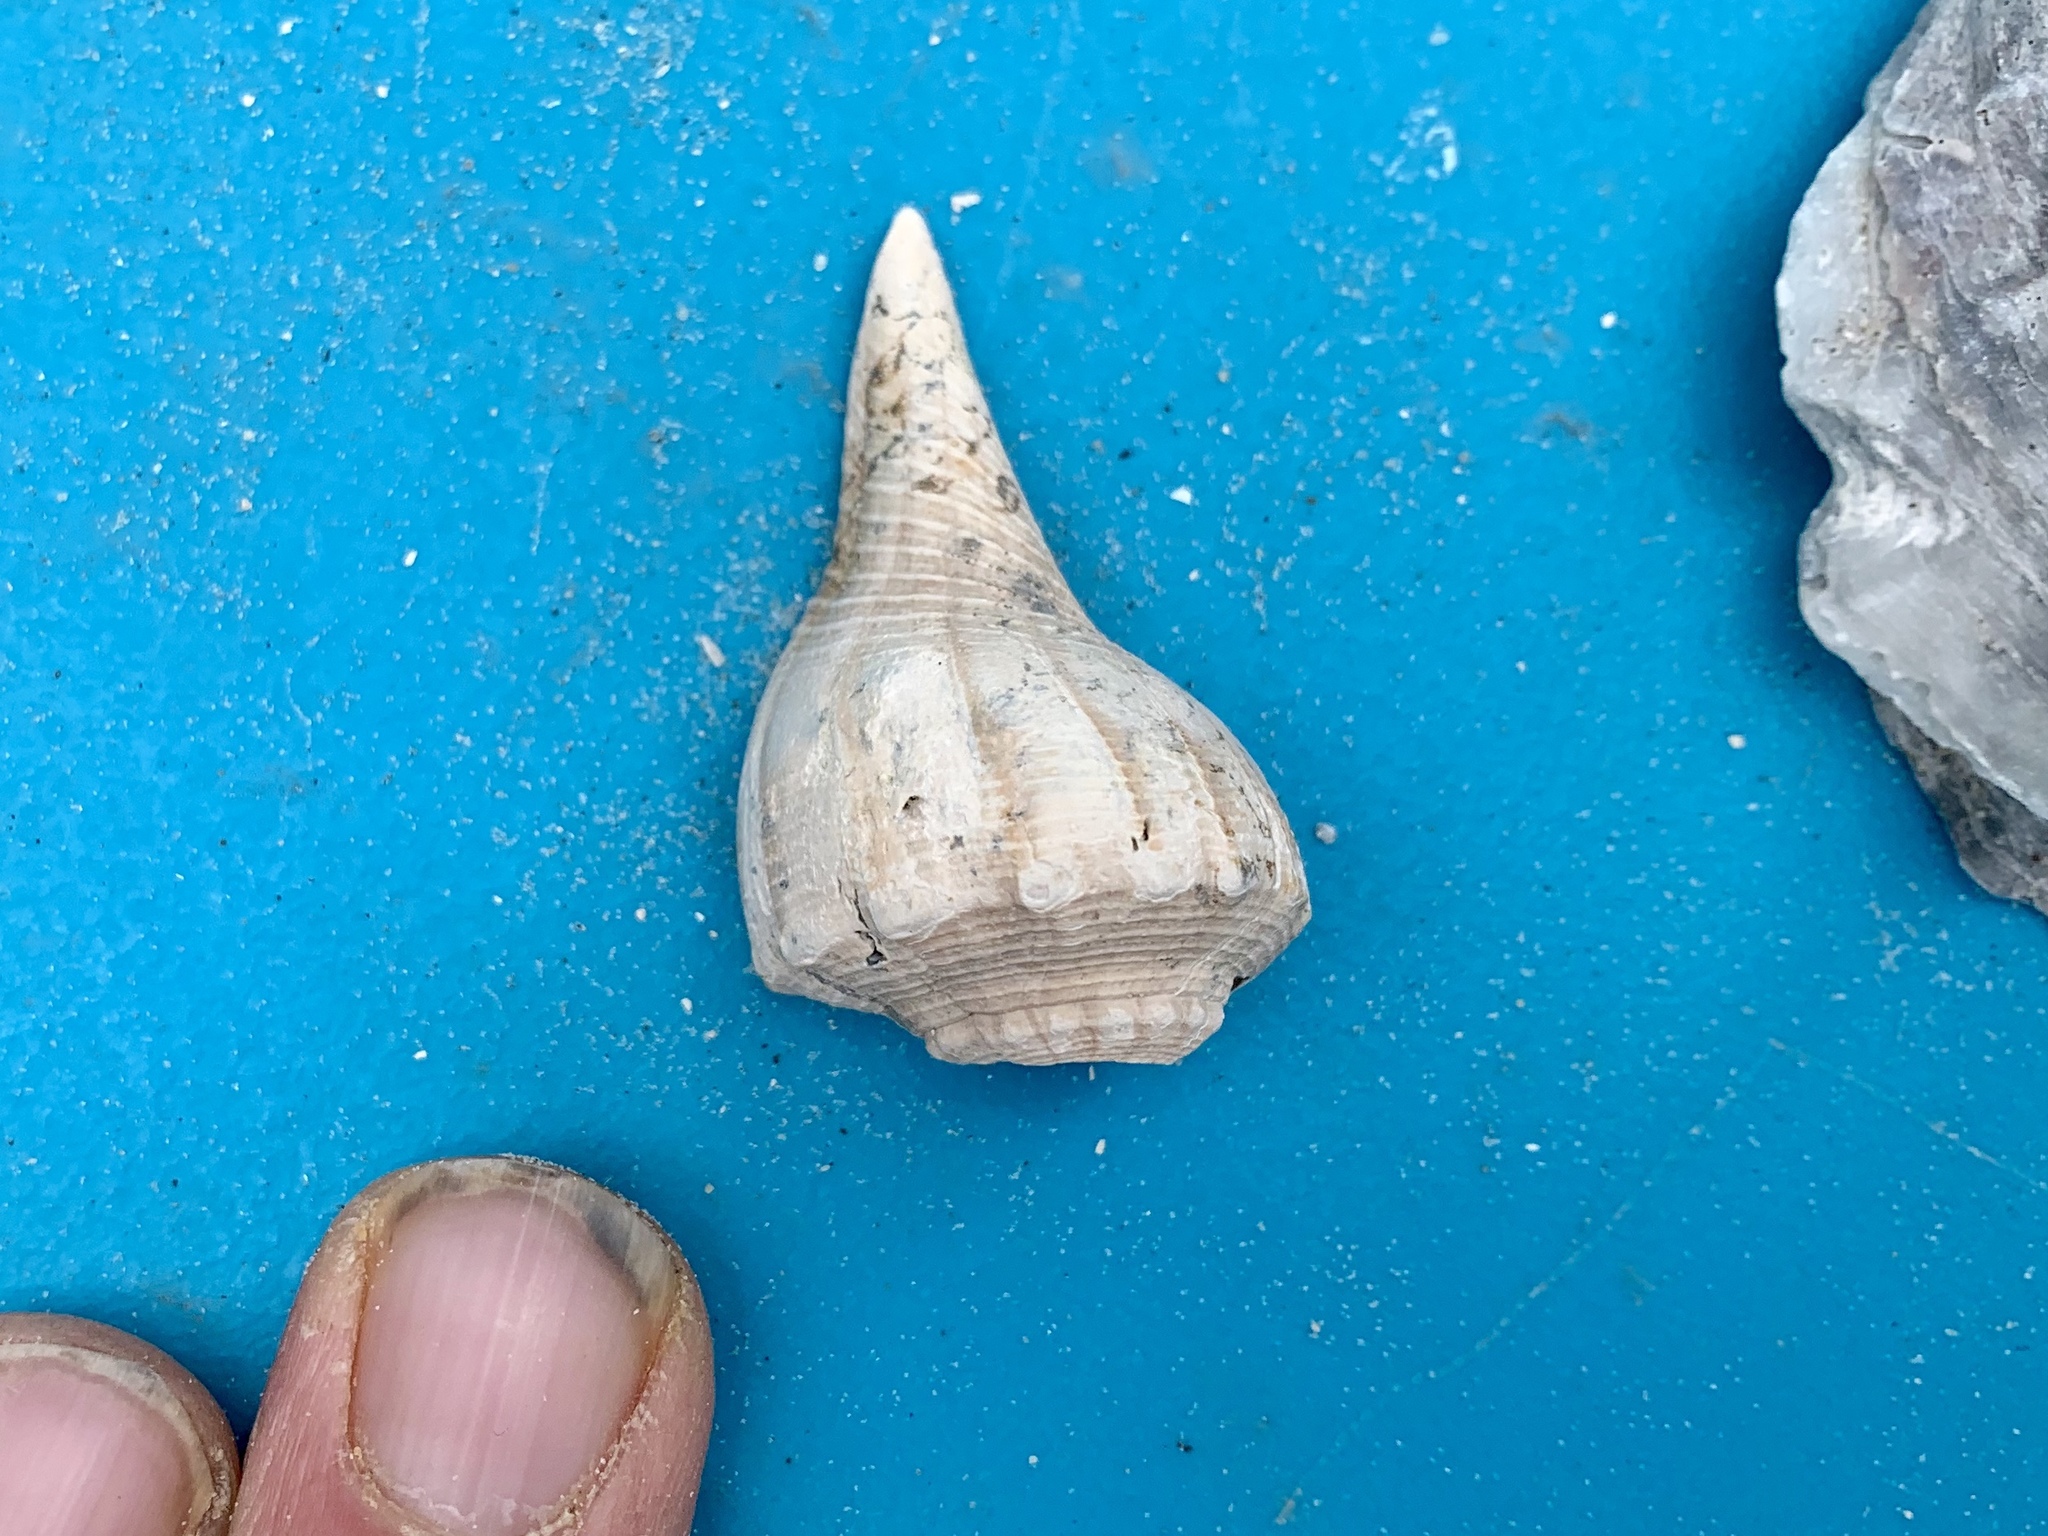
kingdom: Animalia
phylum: Mollusca
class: Gastropoda
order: Neogastropoda
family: Busyconidae
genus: Sinistrofulgur
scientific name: Sinistrofulgur pulleyi
